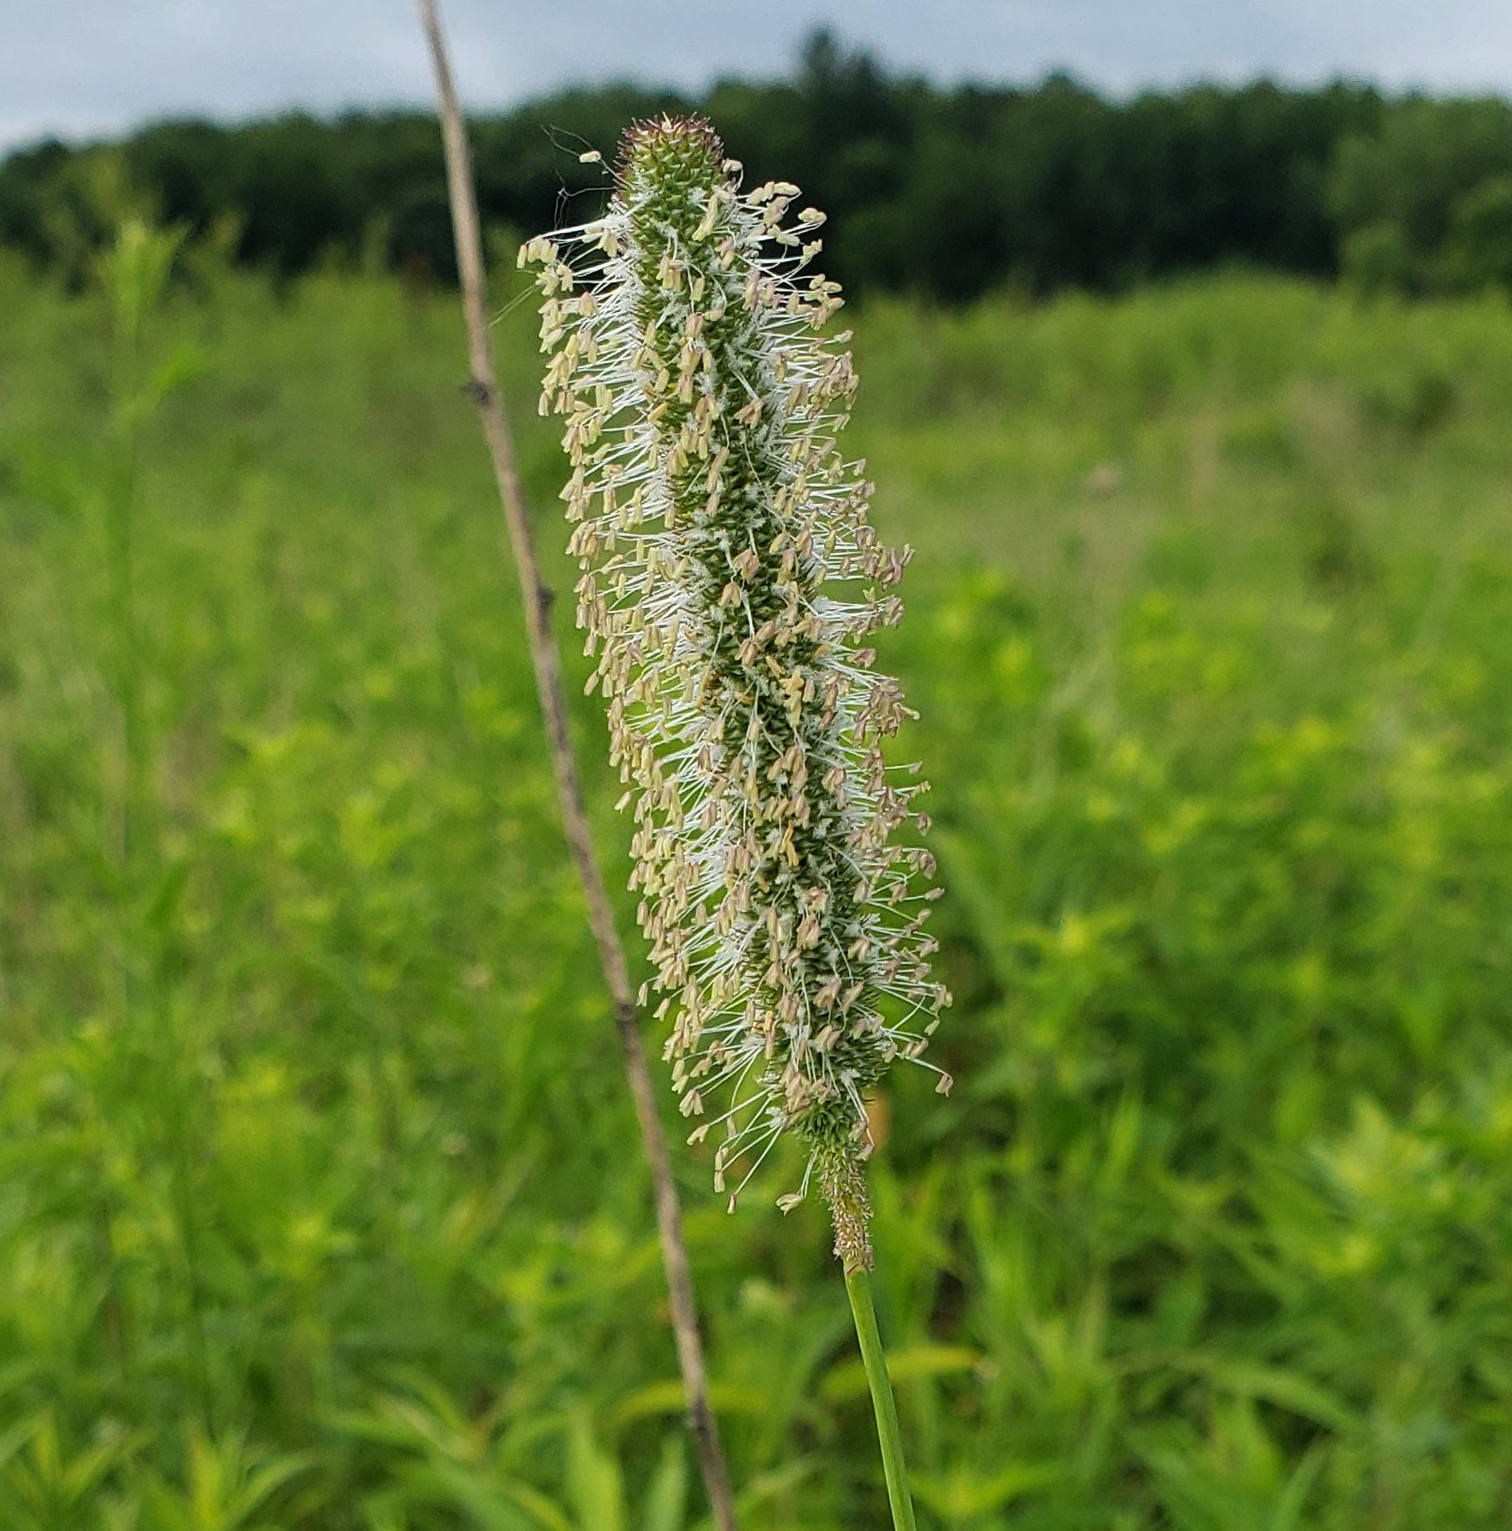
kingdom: Plantae
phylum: Tracheophyta
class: Liliopsida
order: Poales
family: Poaceae
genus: Phleum
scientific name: Phleum pratense
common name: Timothy grass
